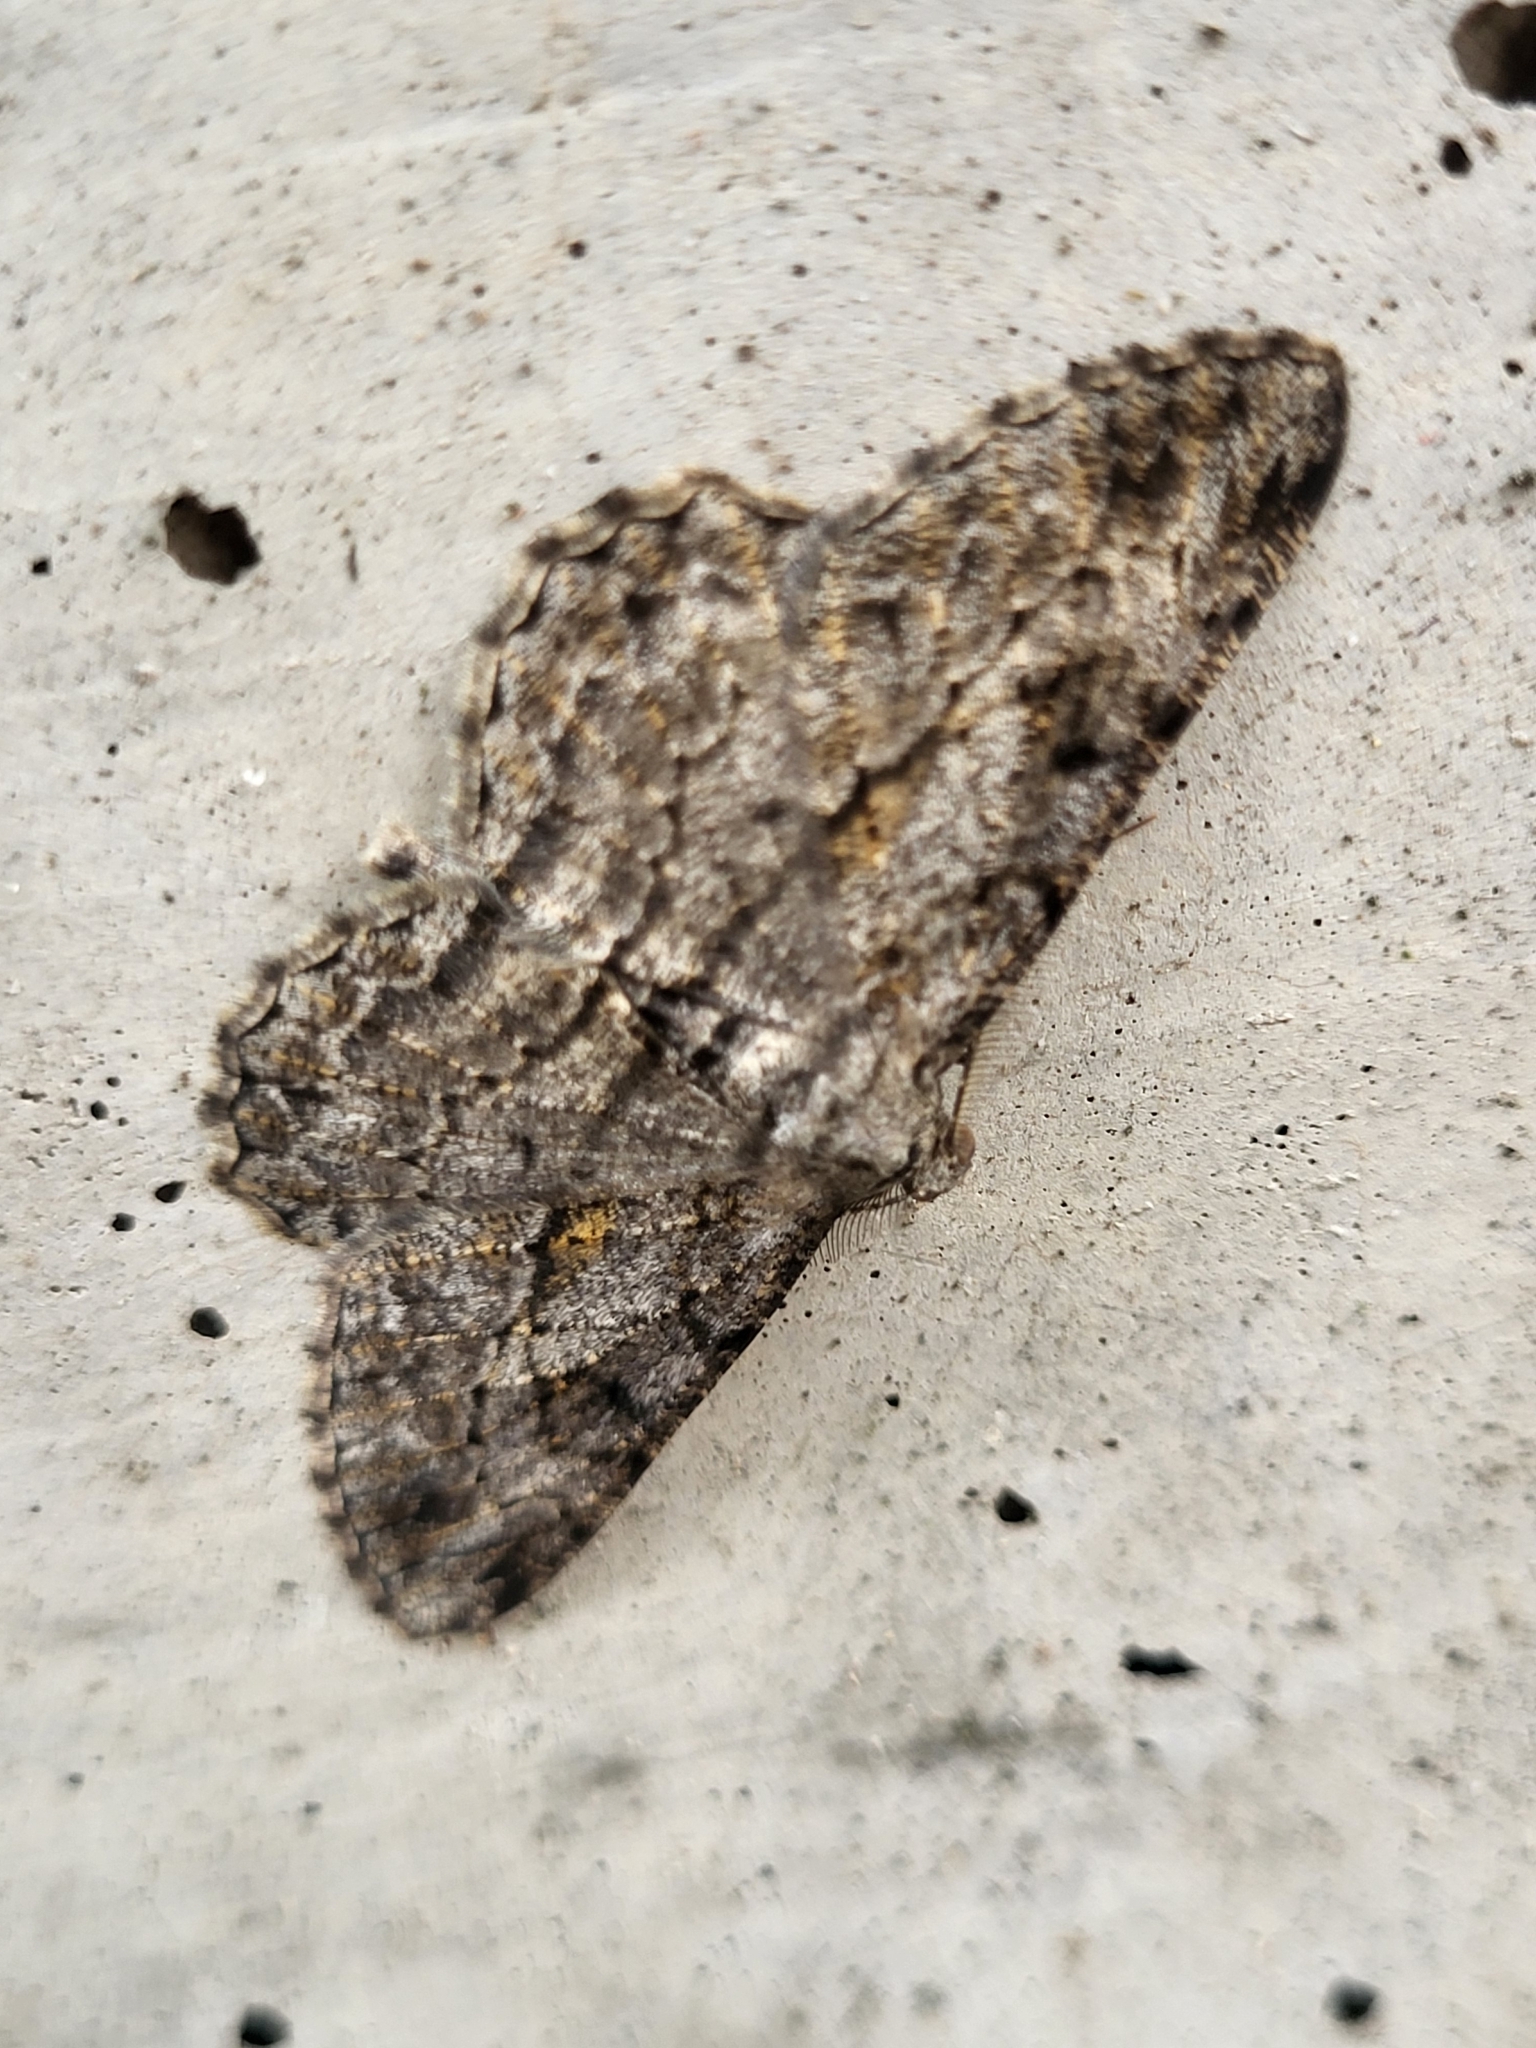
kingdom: Animalia
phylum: Arthropoda
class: Insecta
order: Lepidoptera
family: Geometridae
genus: Peribatodes
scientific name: Peribatodes rhomboidaria
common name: Willow beauty
